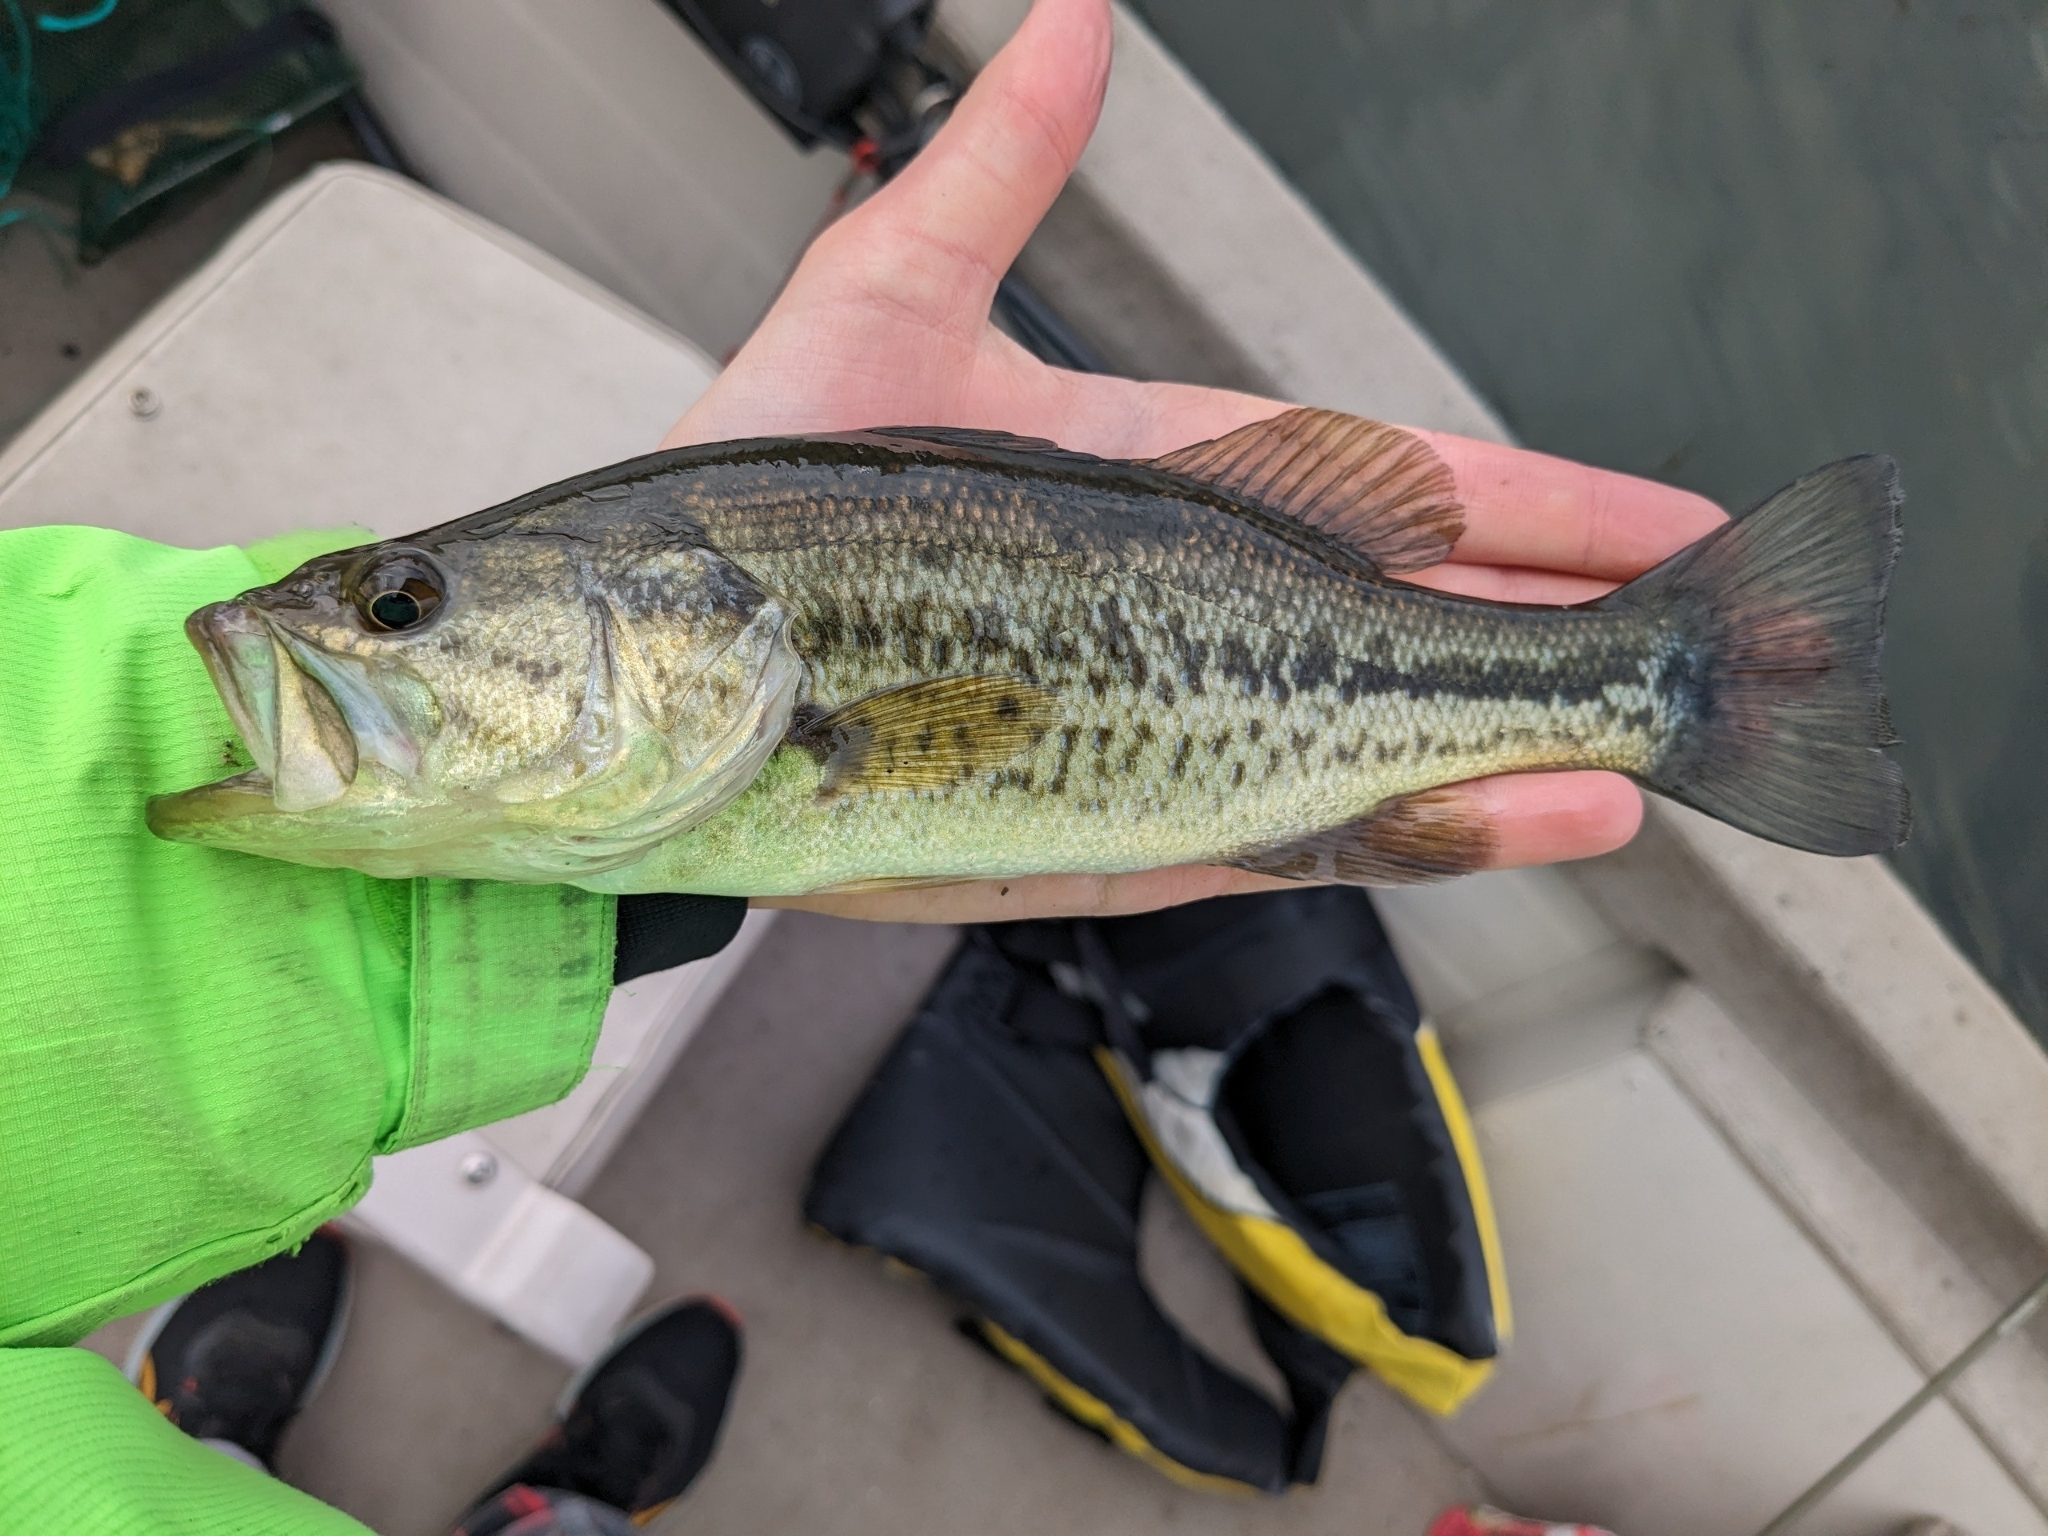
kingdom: Animalia
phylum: Chordata
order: Perciformes
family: Centrarchidae
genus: Micropterus
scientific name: Micropterus
